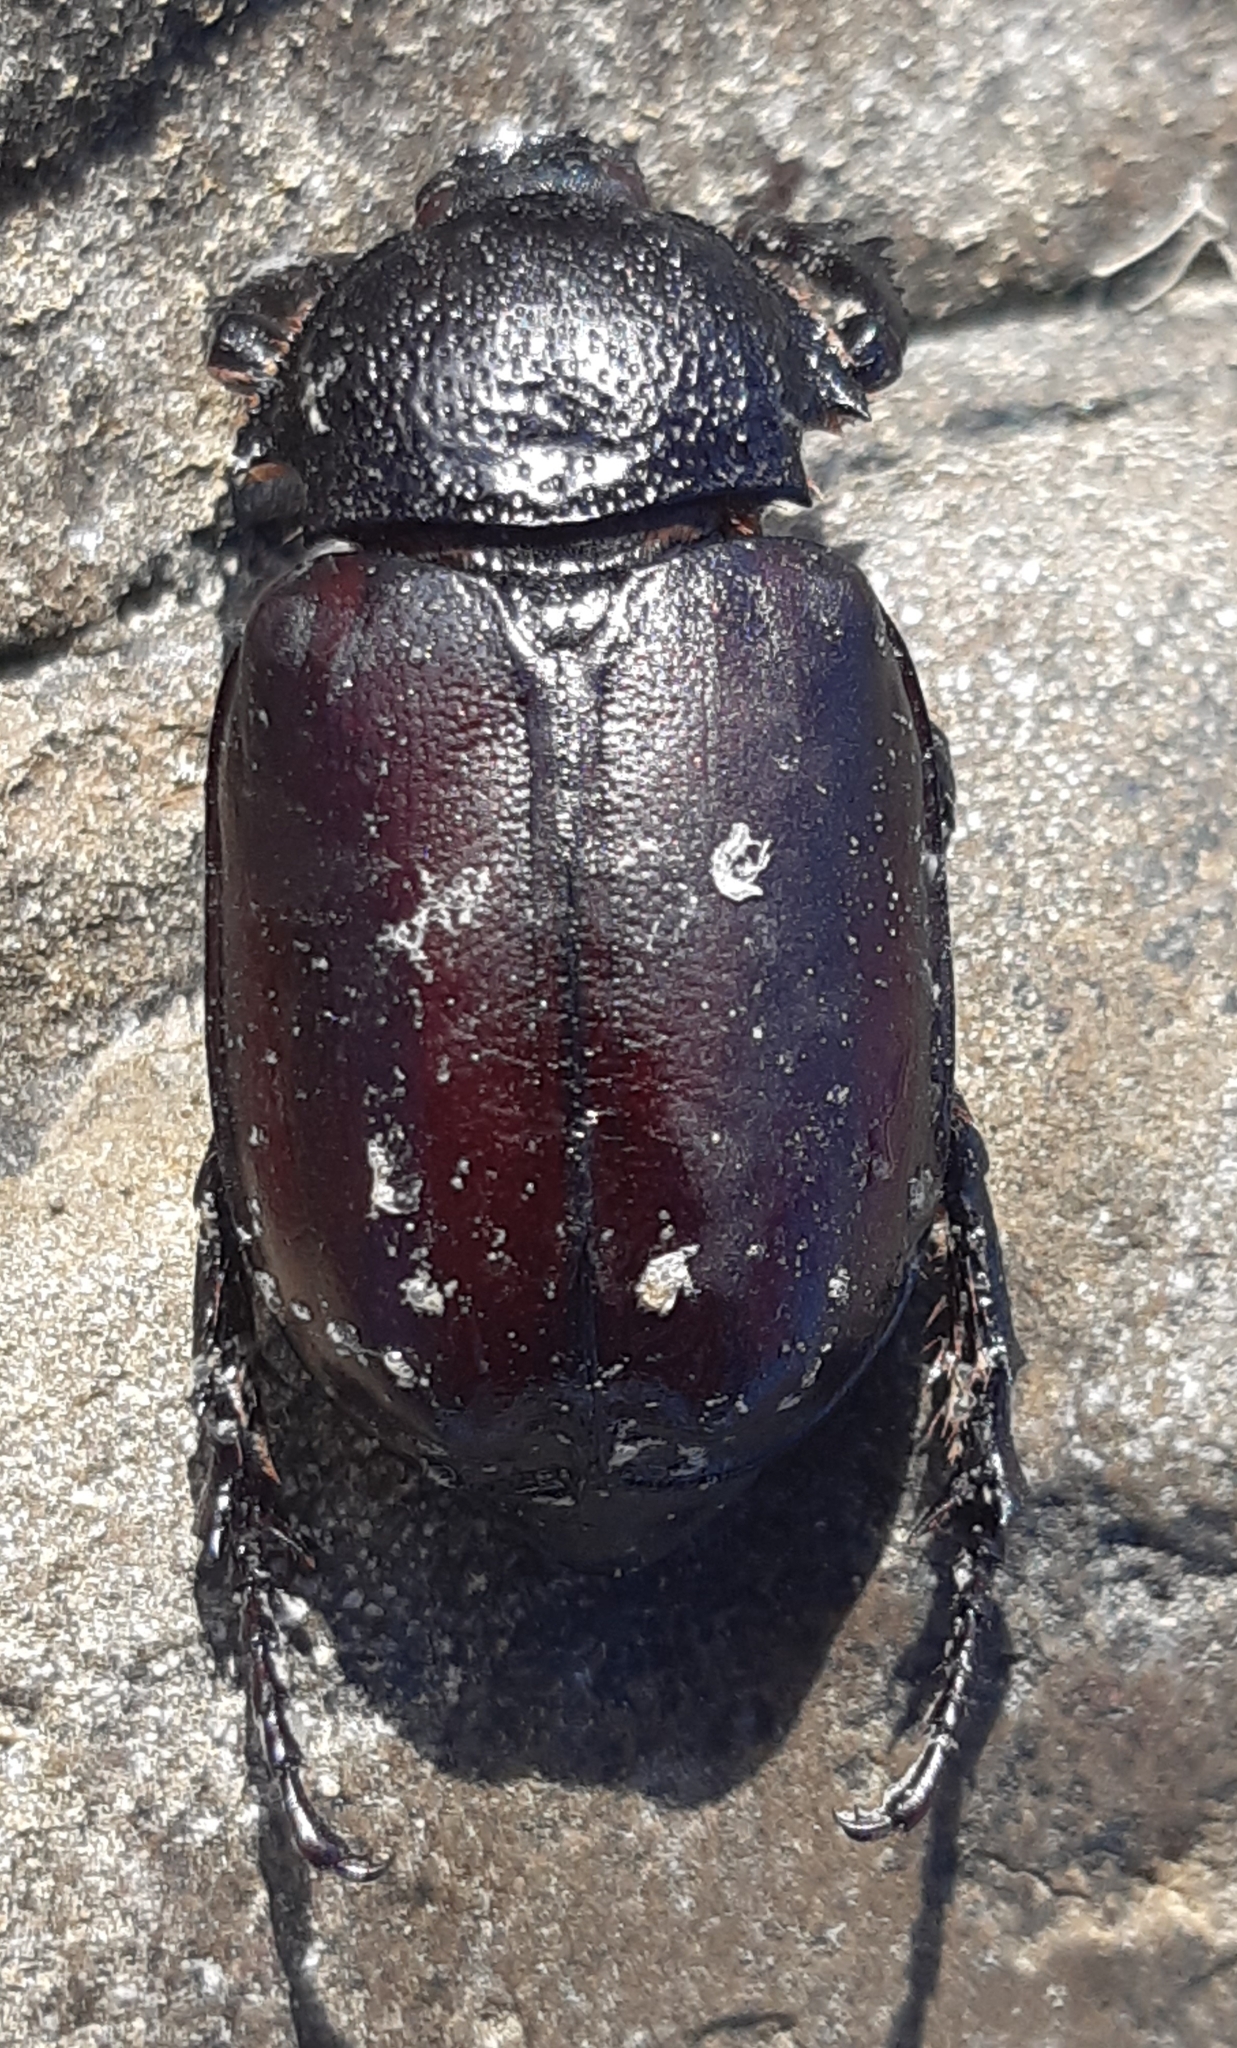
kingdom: Animalia
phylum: Arthropoda
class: Insecta
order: Coleoptera
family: Scarabaeidae
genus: Propomacrus
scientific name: Propomacrus cypriacus
